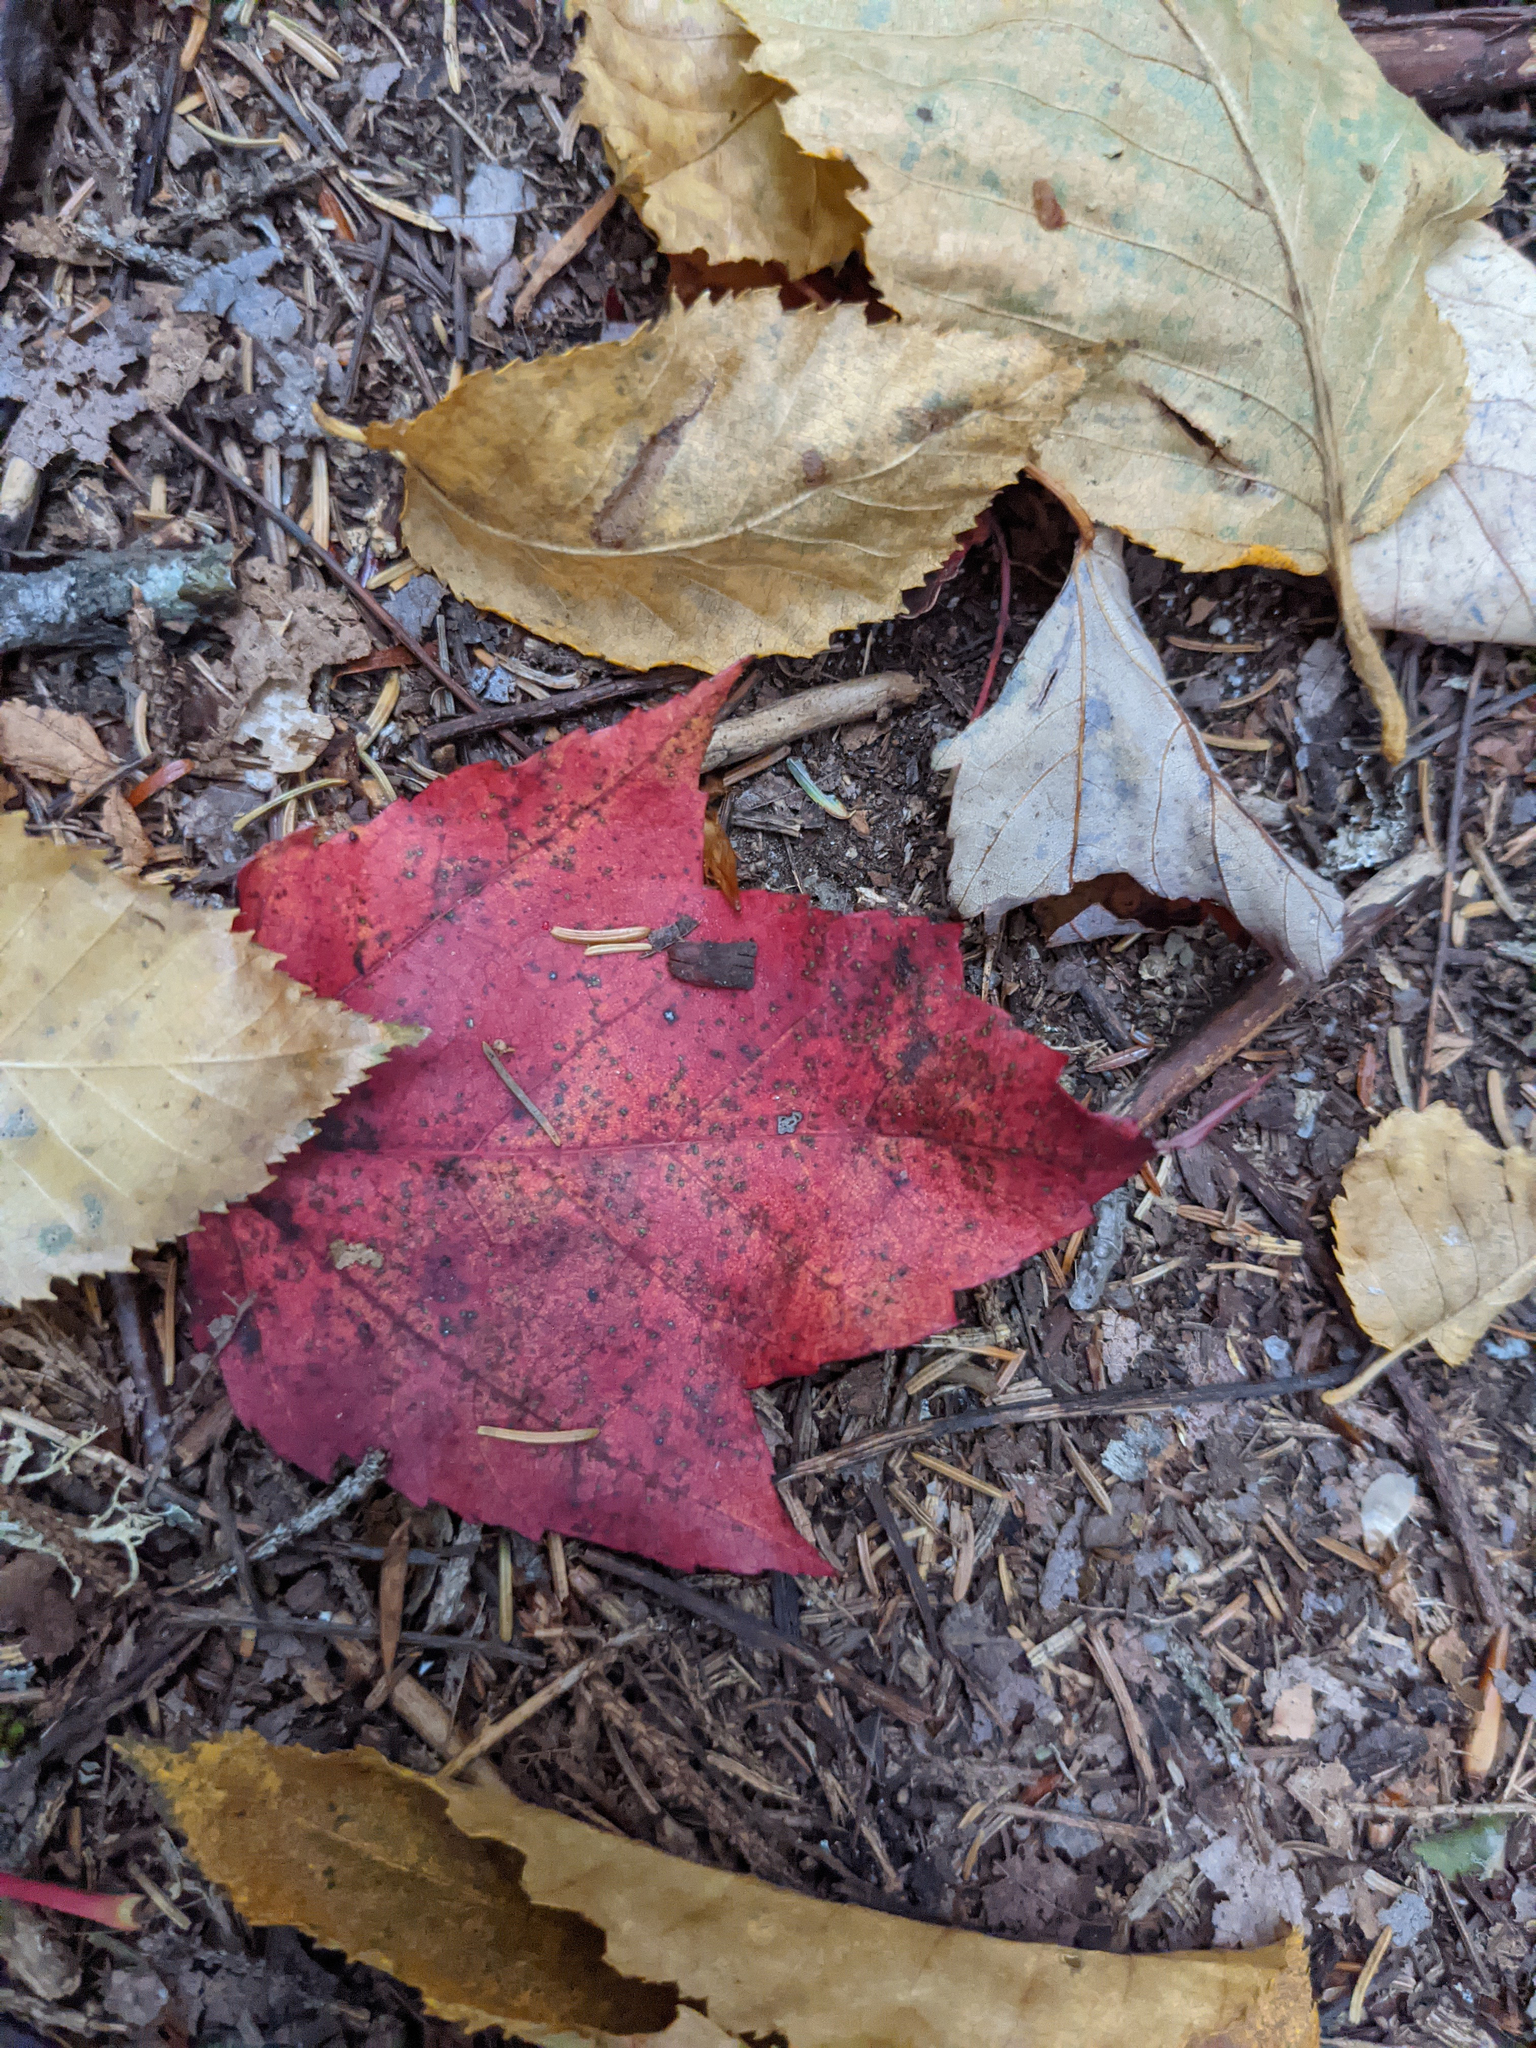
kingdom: Plantae
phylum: Tracheophyta
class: Magnoliopsida
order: Sapindales
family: Sapindaceae
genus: Acer
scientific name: Acer rubrum
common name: Red maple
